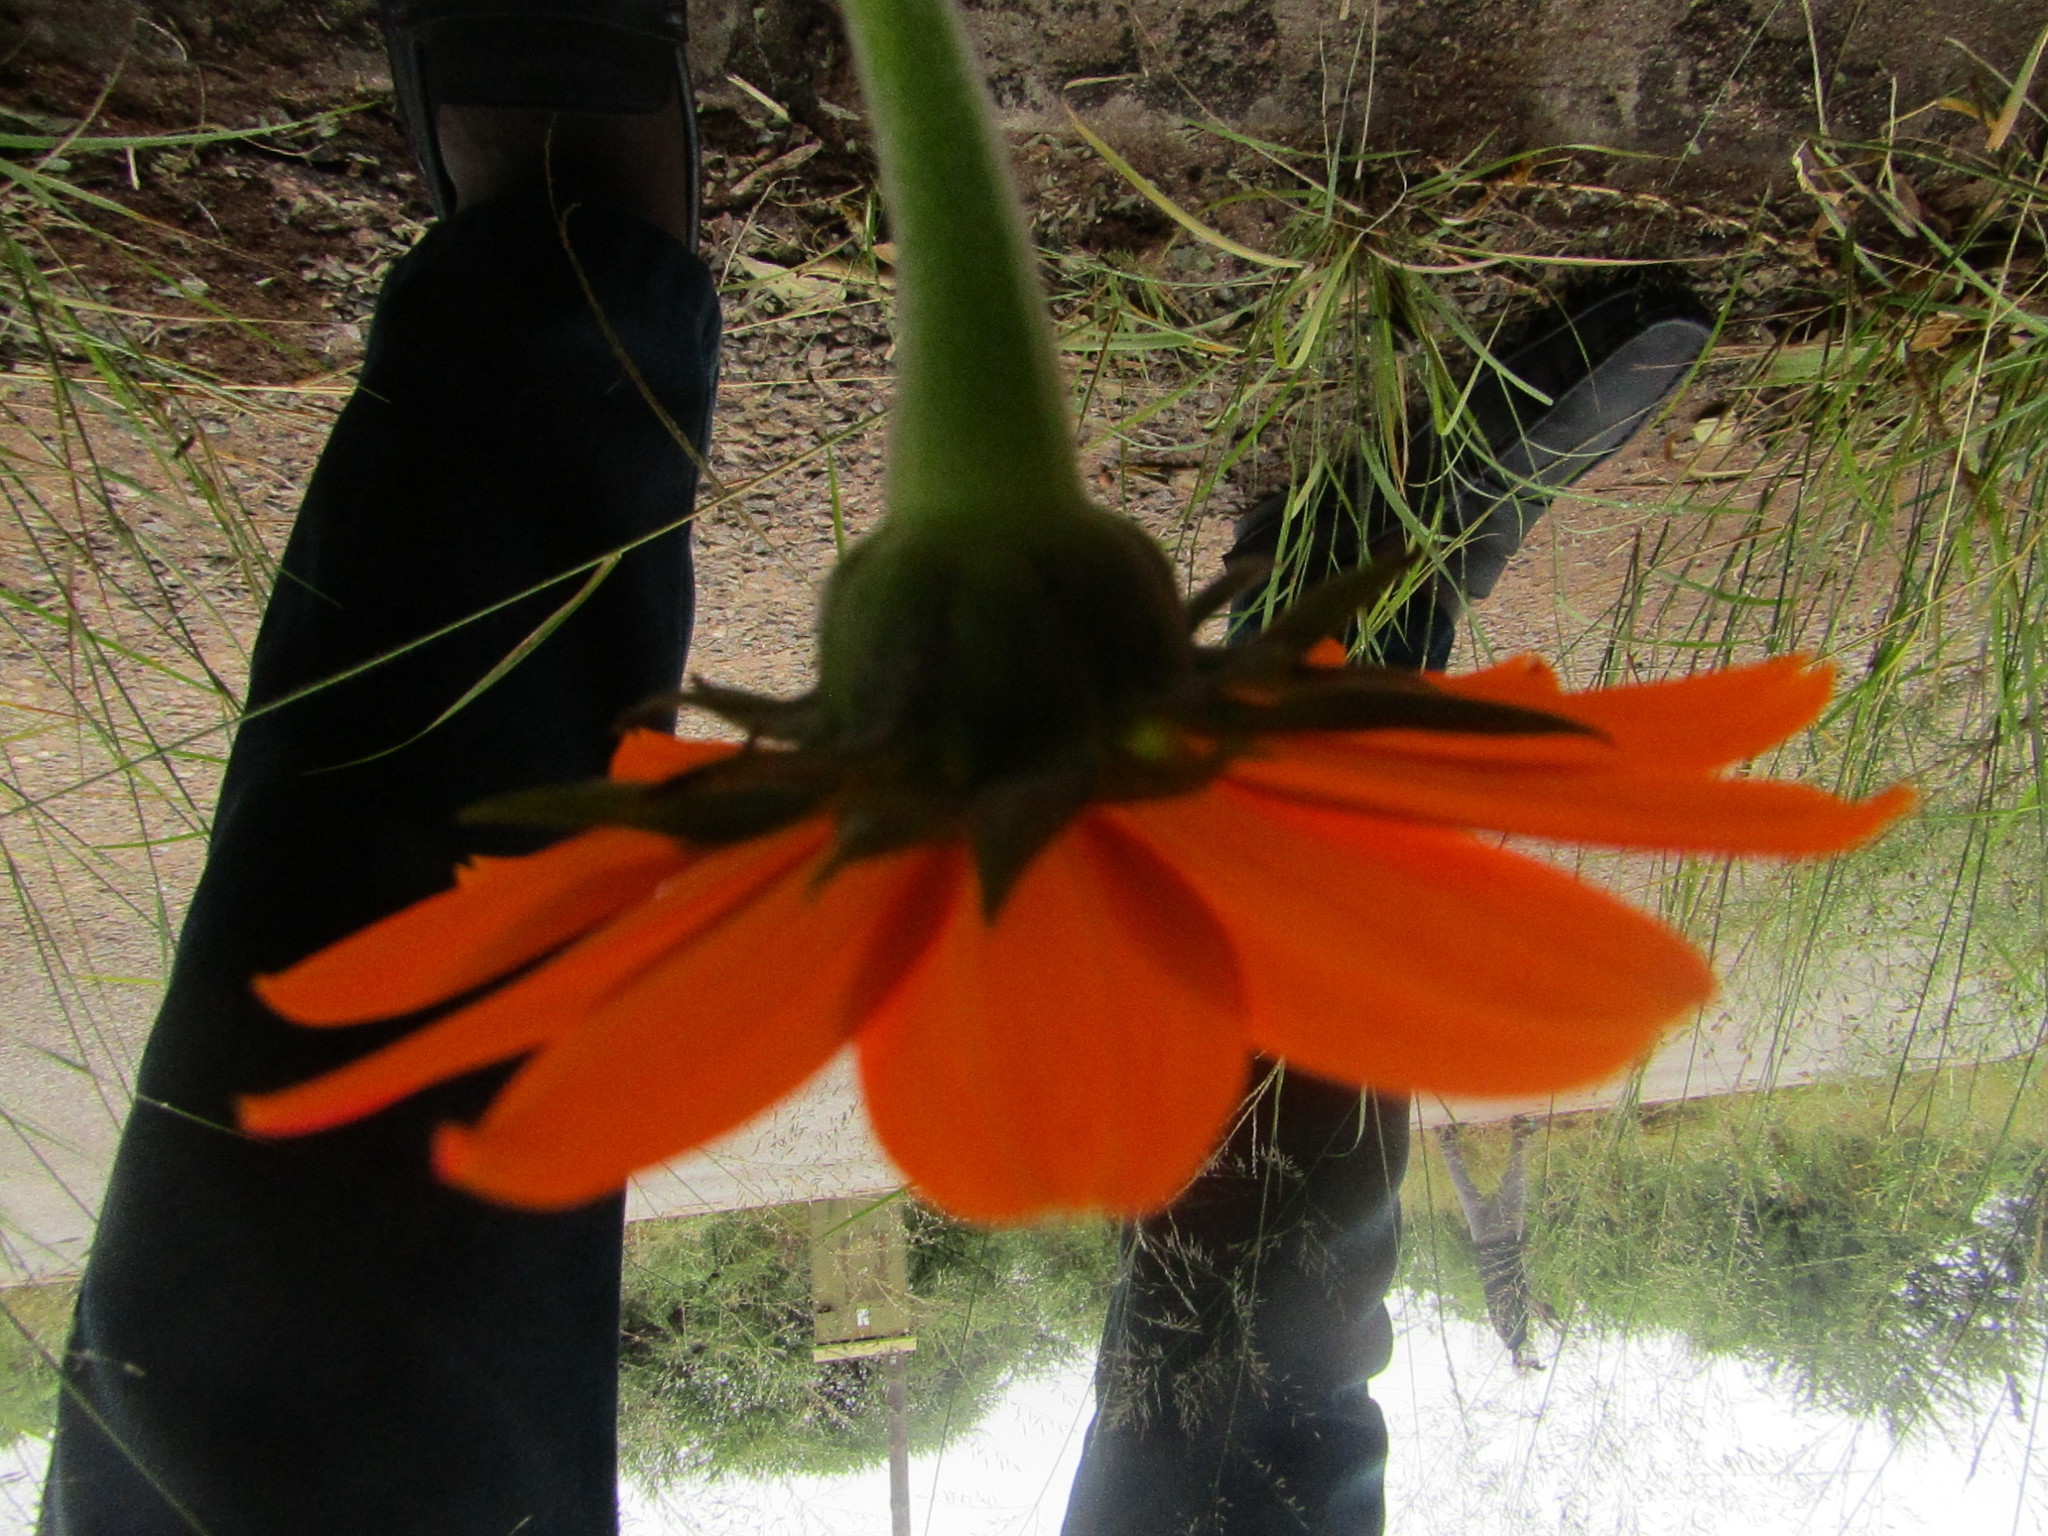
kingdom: Plantae
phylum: Tracheophyta
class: Magnoliopsida
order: Asterales
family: Asteraceae
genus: Tithonia
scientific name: Tithonia rotundifolia
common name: Sunflower
